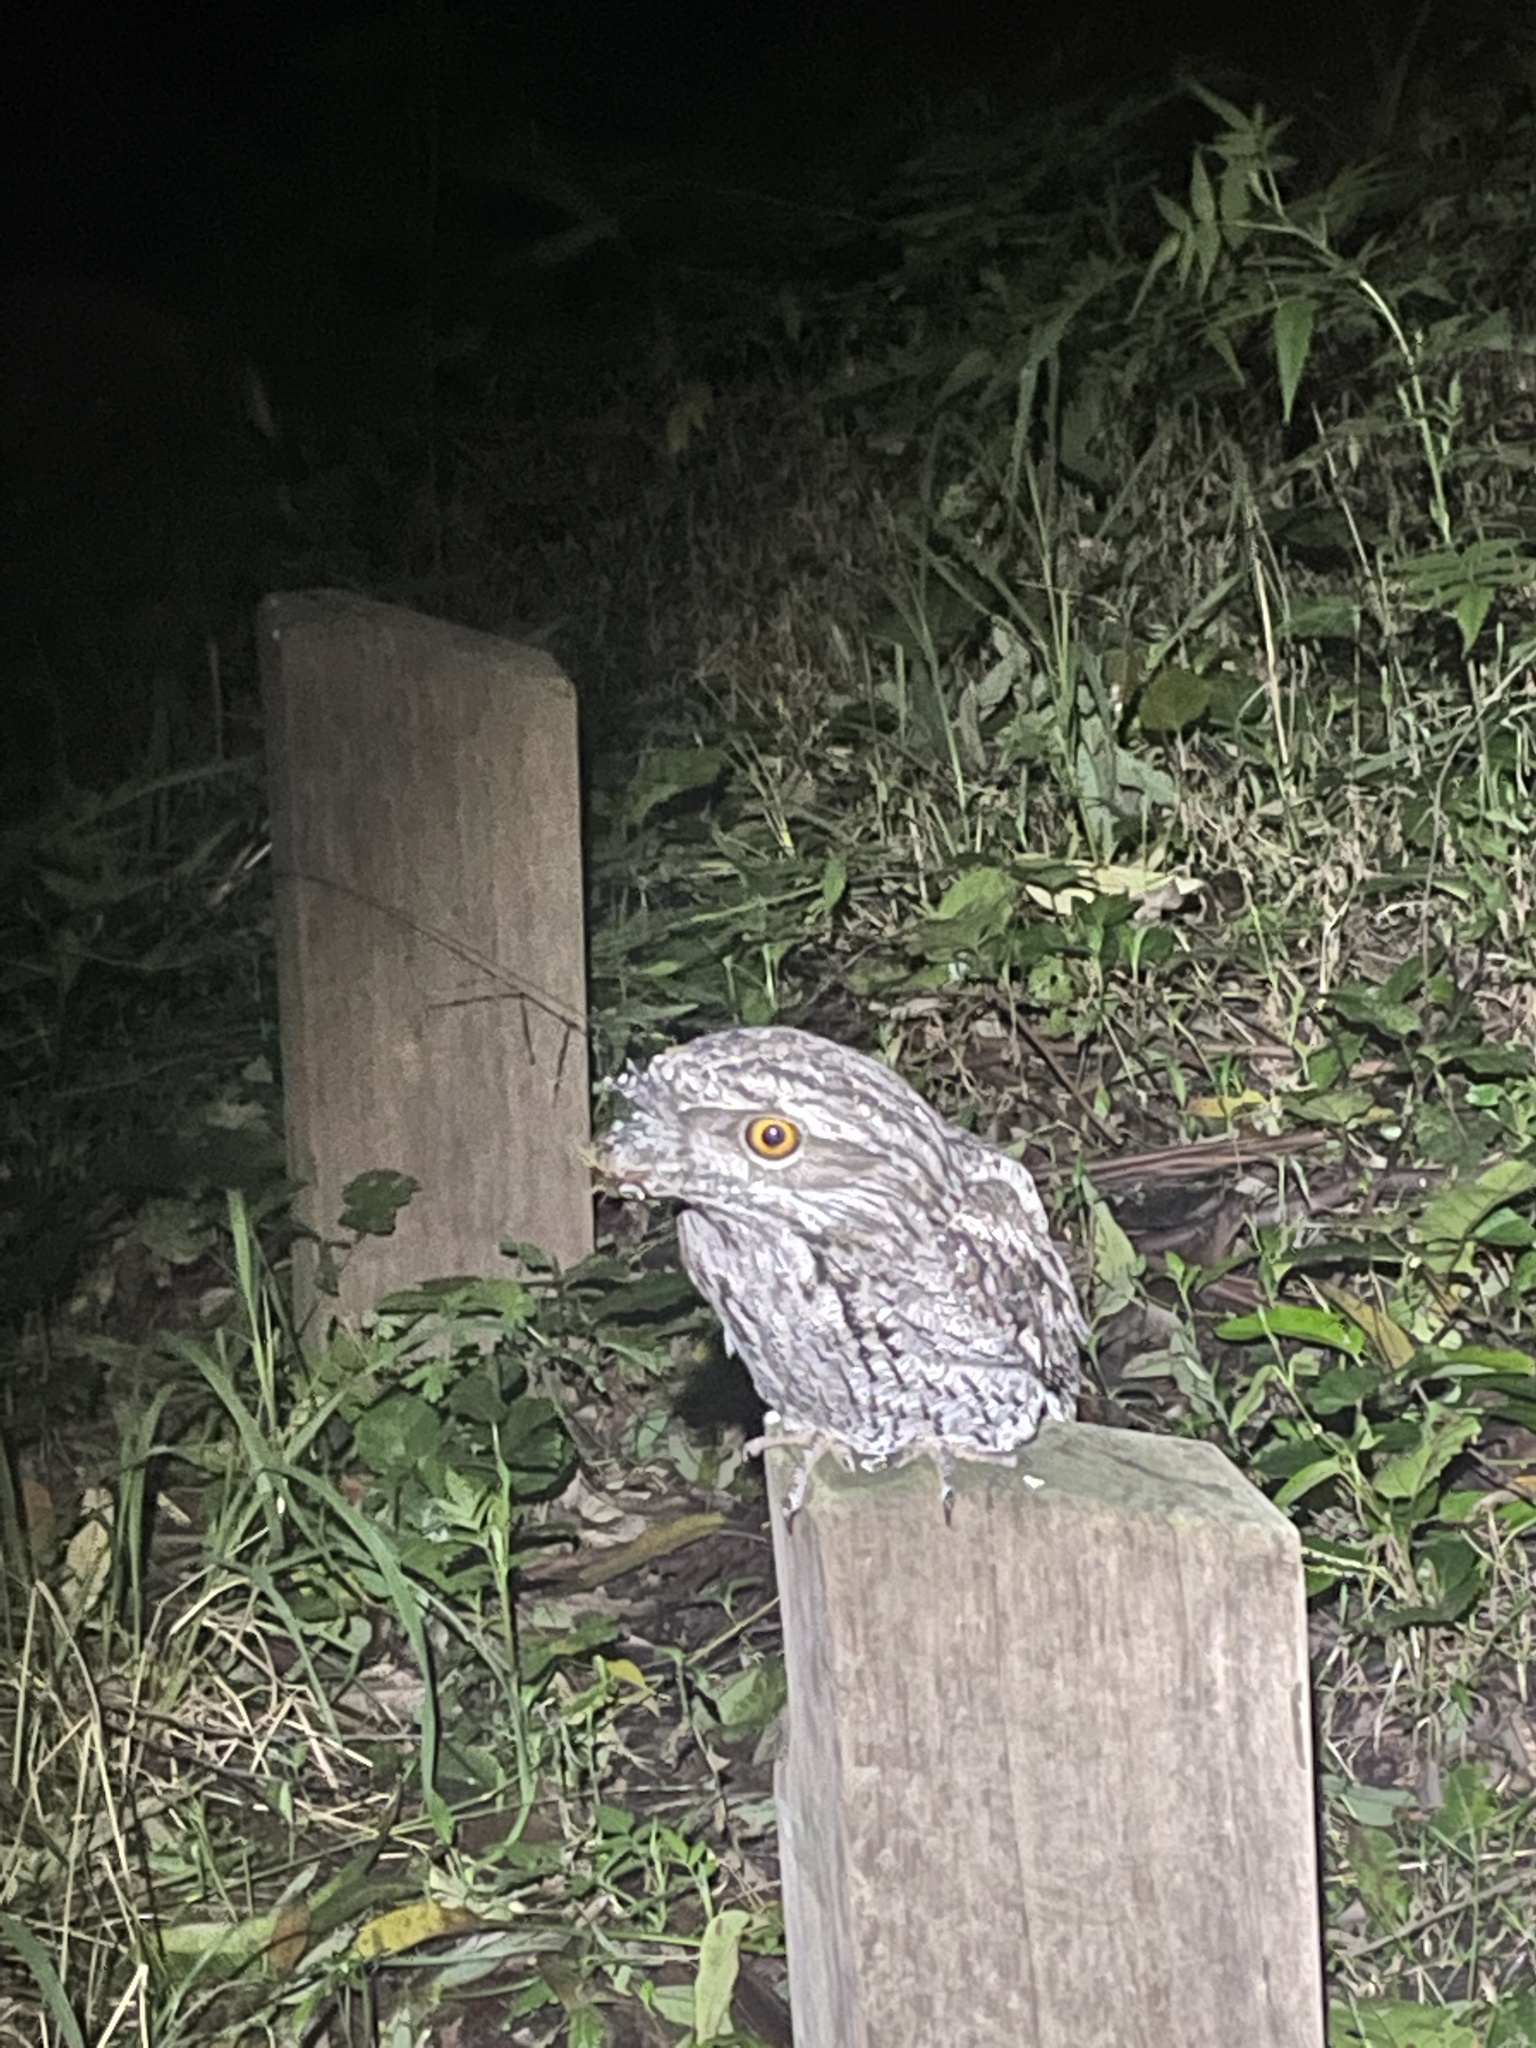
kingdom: Animalia
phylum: Chordata
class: Aves
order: Caprimulgiformes
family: Podargidae
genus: Podargus
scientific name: Podargus strigoides
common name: Tawny frogmouth
